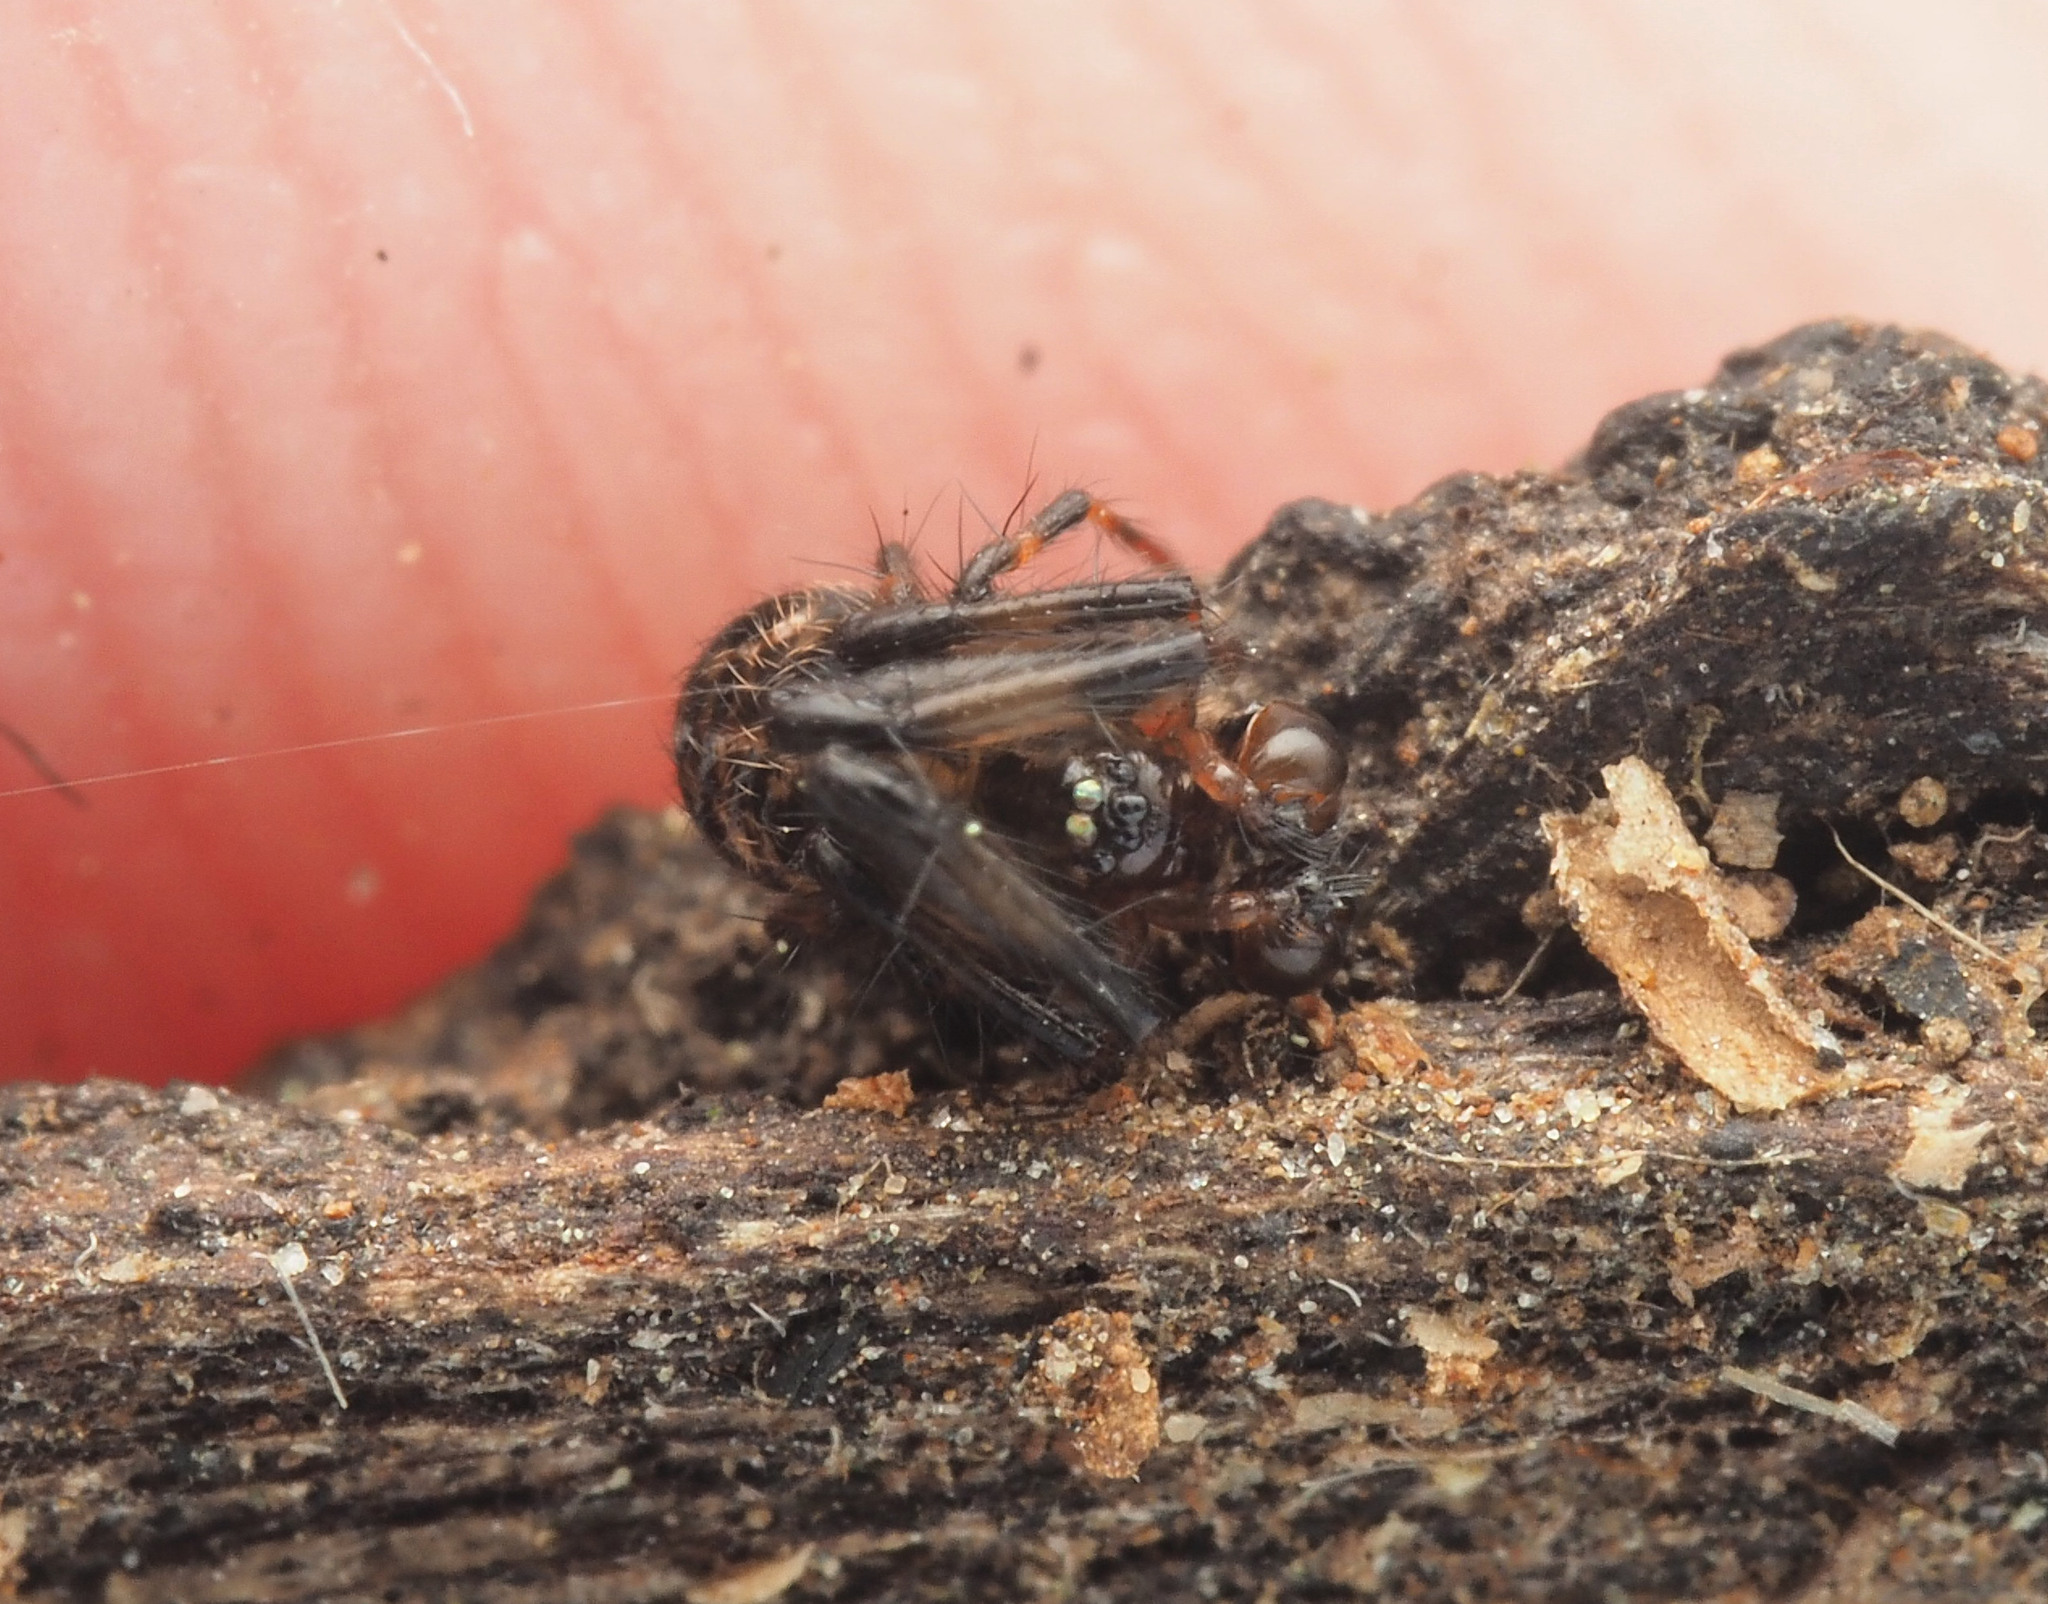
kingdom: Animalia
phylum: Arthropoda
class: Arachnida
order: Araneae
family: Theridiosomatidae
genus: Baalzebub
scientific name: Baalzebub
